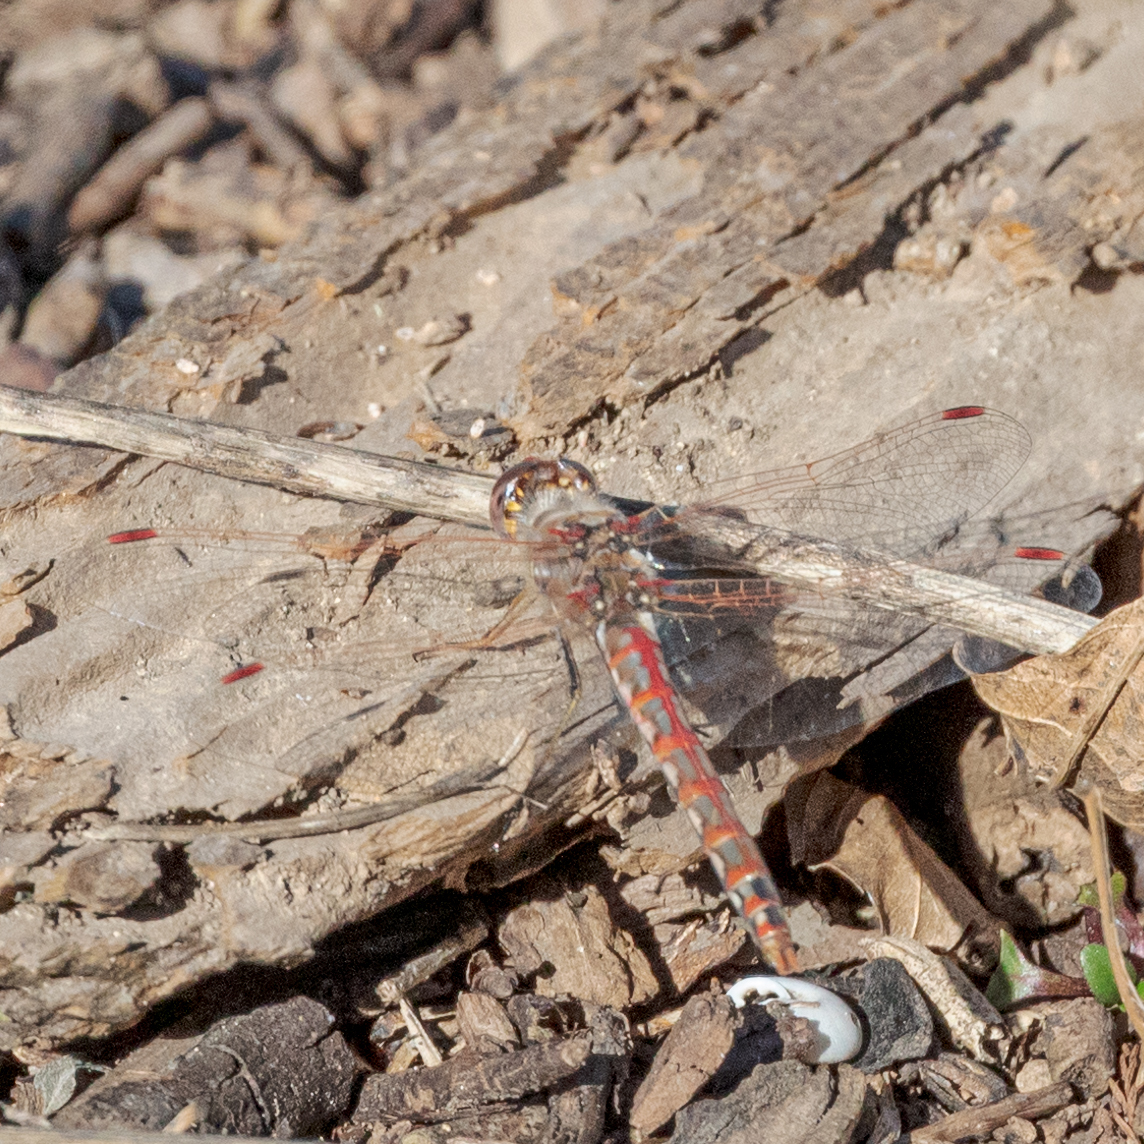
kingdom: Animalia
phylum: Arthropoda
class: Insecta
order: Odonata
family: Libellulidae
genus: Sympetrum
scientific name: Sympetrum corruptum
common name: Variegated meadowhawk
